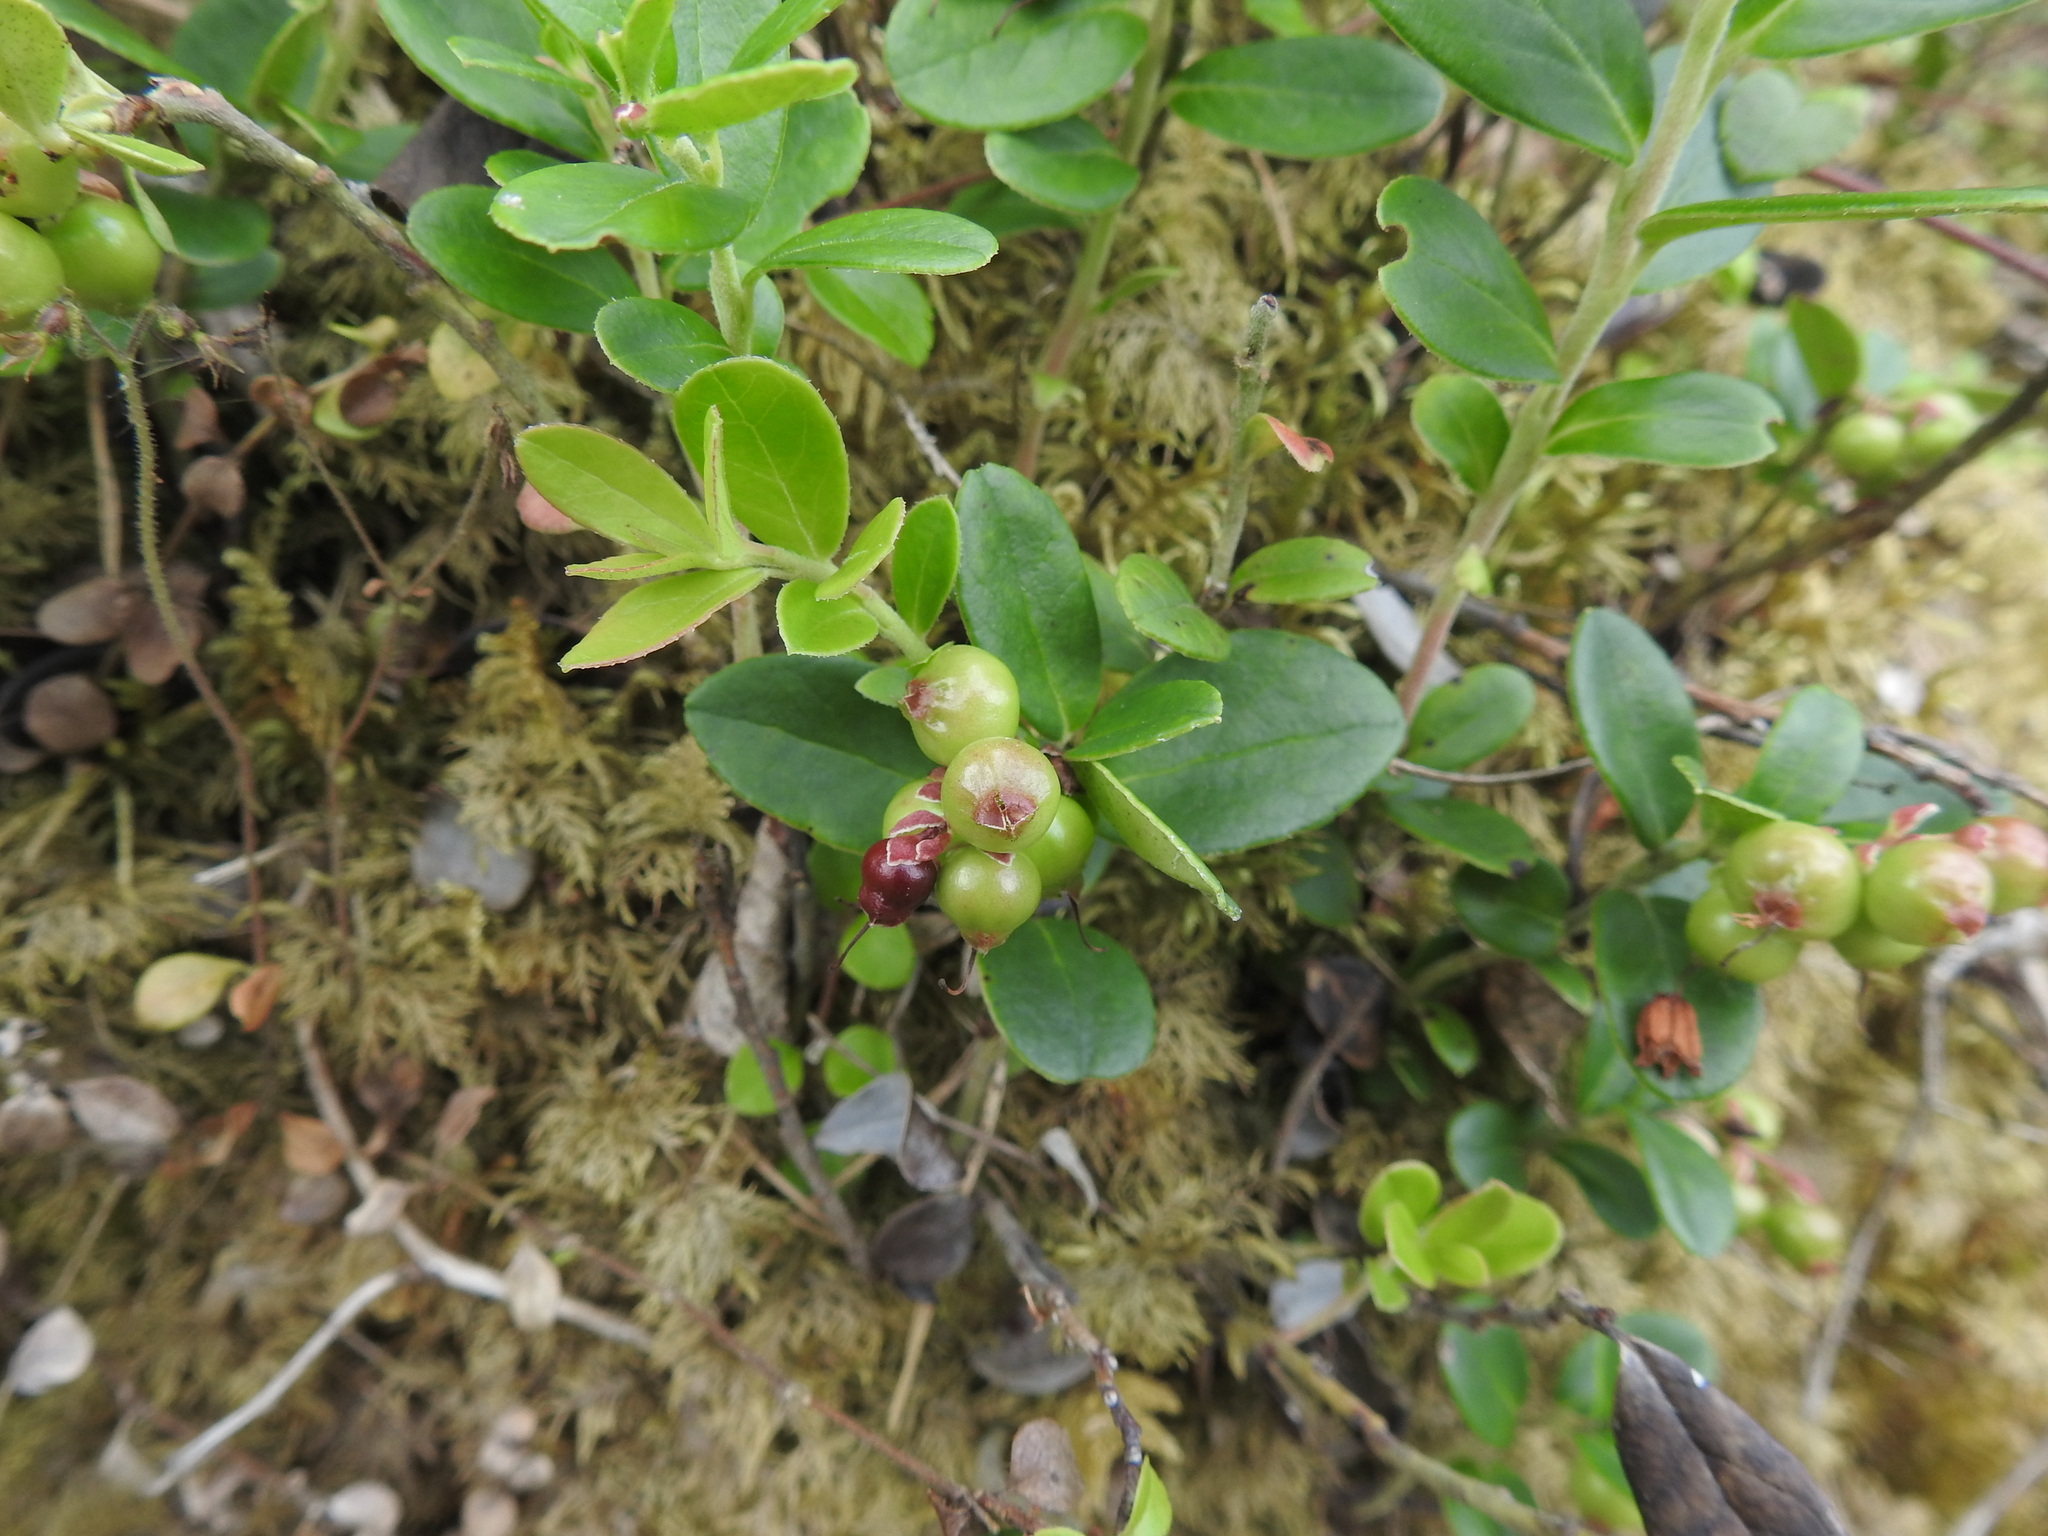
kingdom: Plantae
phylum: Tracheophyta
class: Magnoliopsida
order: Ericales
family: Ericaceae
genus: Vaccinium
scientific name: Vaccinium vitis-idaea
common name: Cowberry
